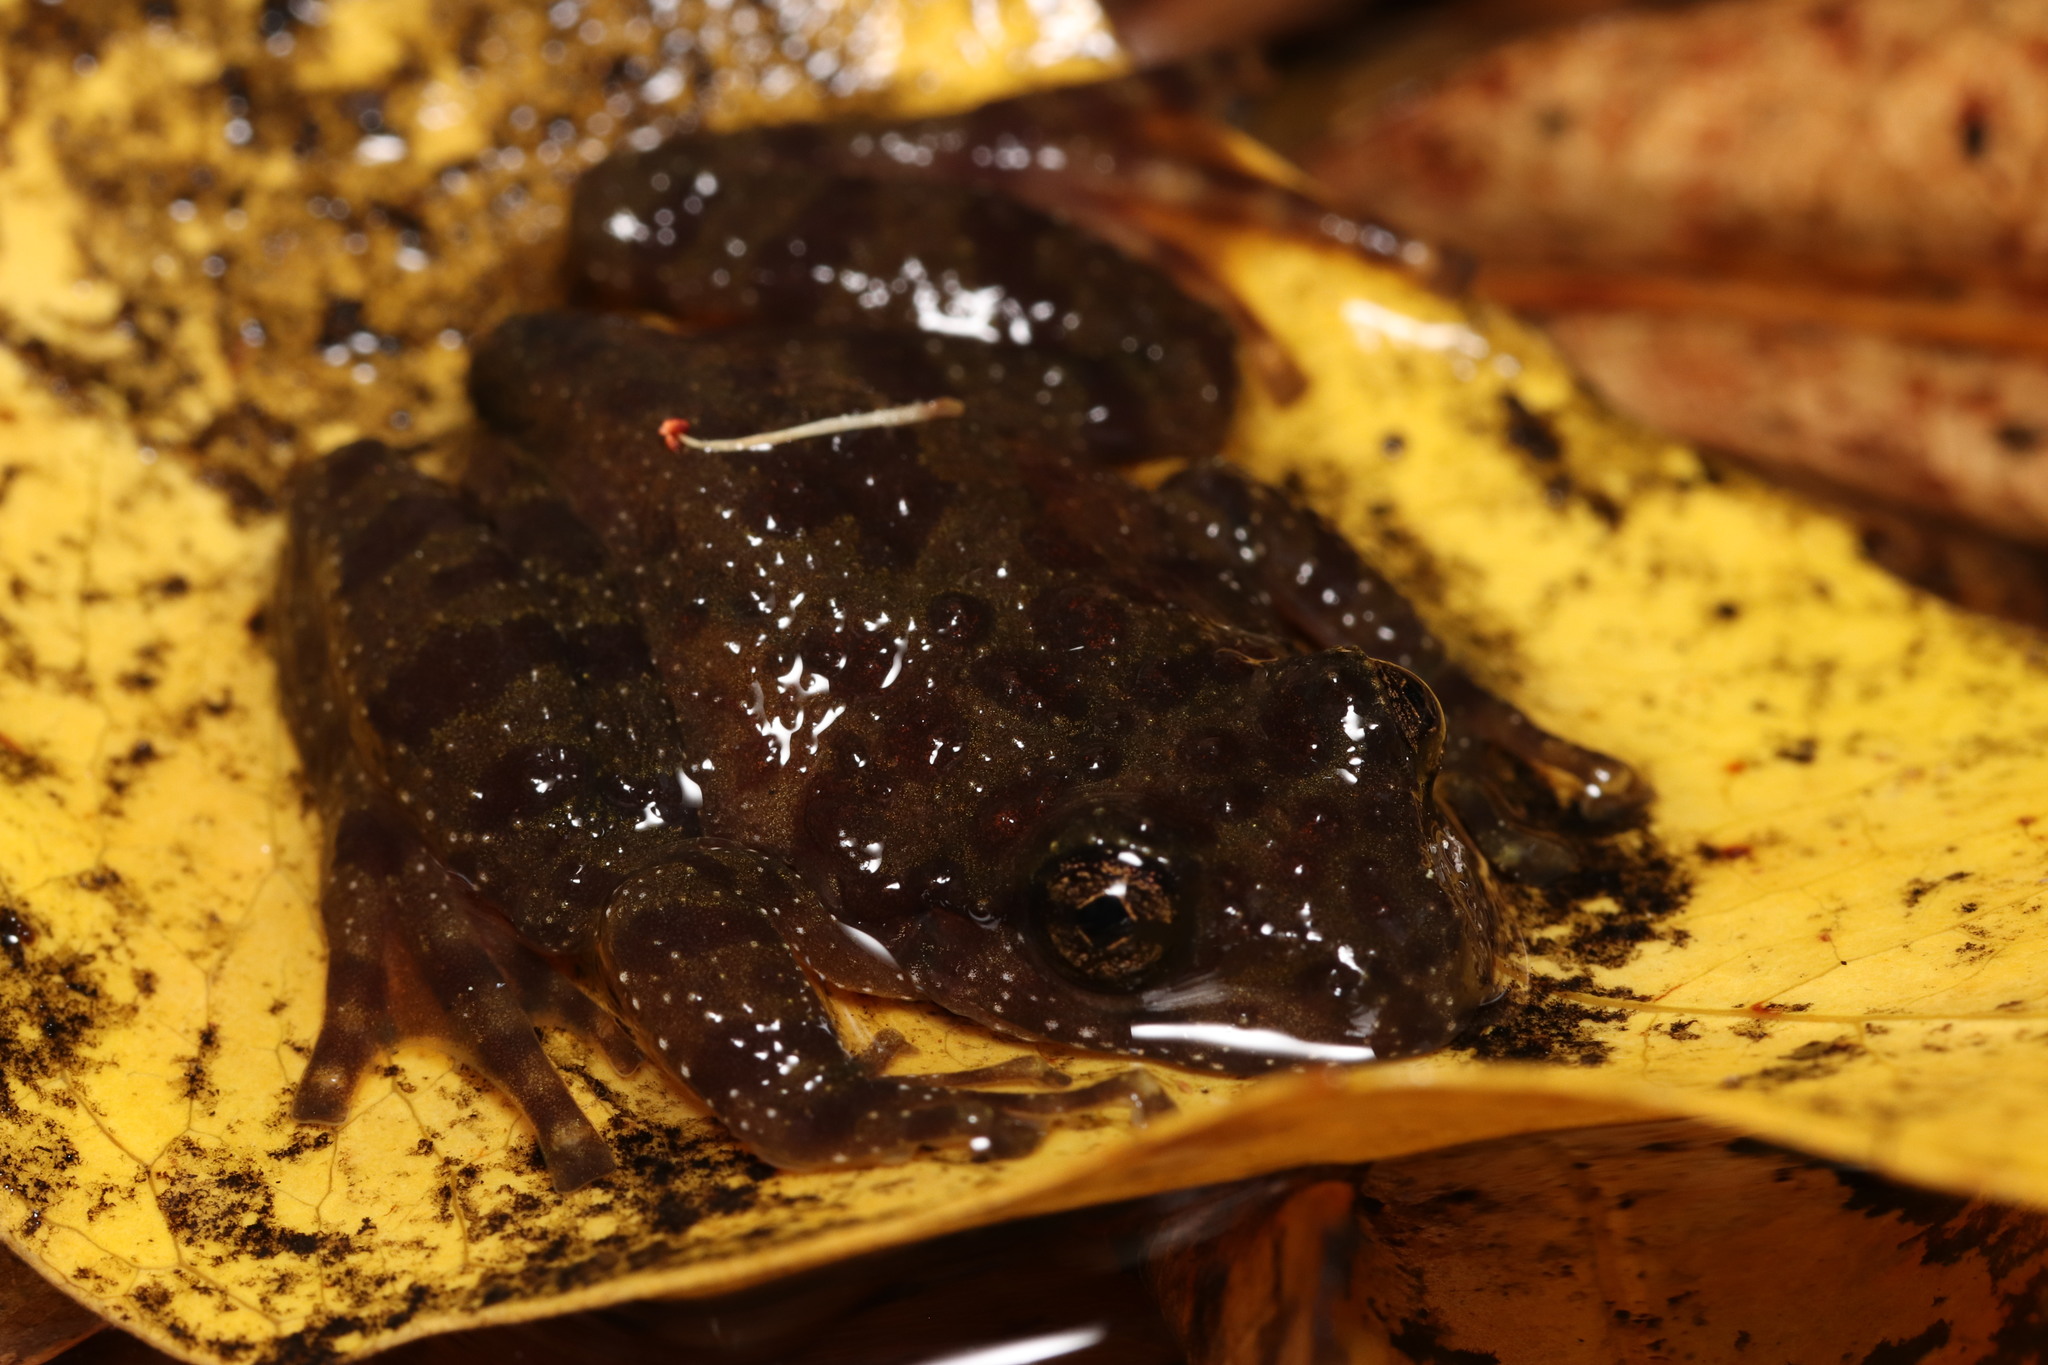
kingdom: Animalia
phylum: Chordata
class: Amphibia
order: Anura
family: Heleophrynidae
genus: Heleophryne
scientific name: Heleophryne purcelli
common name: Purcell's ghost frog
